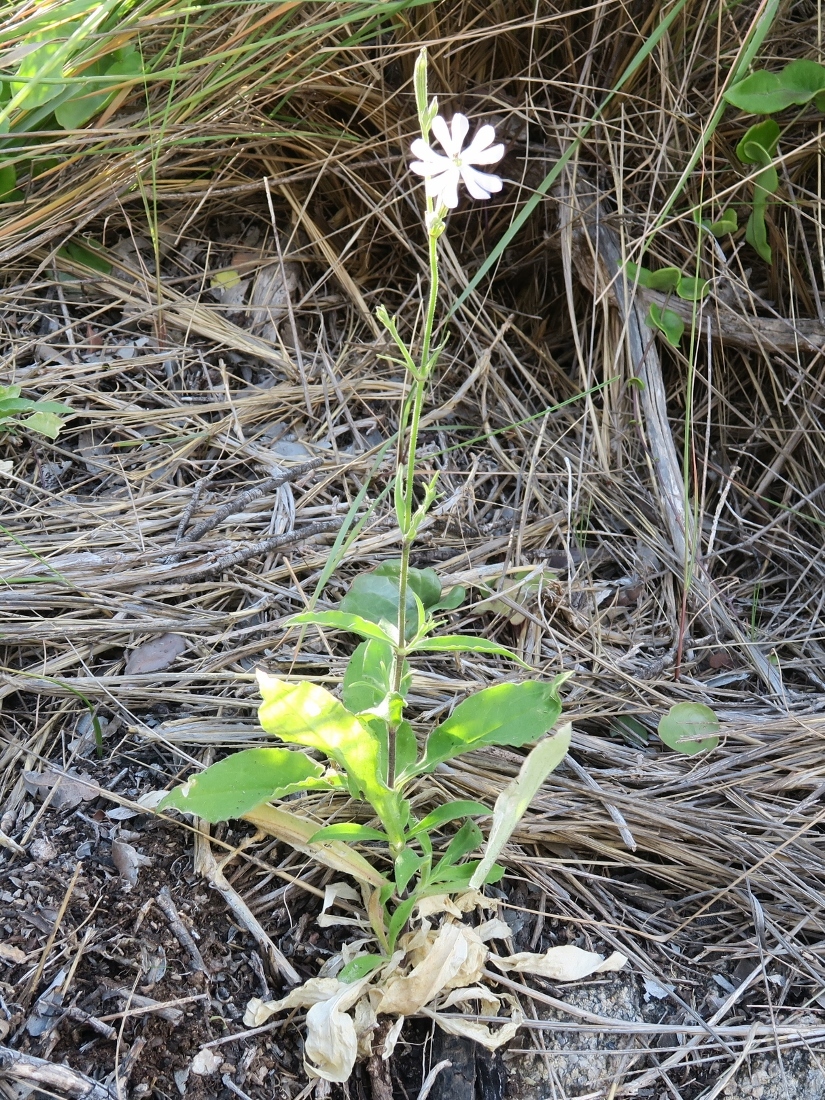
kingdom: Plantae
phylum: Tracheophyta
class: Magnoliopsida
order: Caryophyllales
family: Caryophyllaceae
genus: Silene
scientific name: Silene undulata
